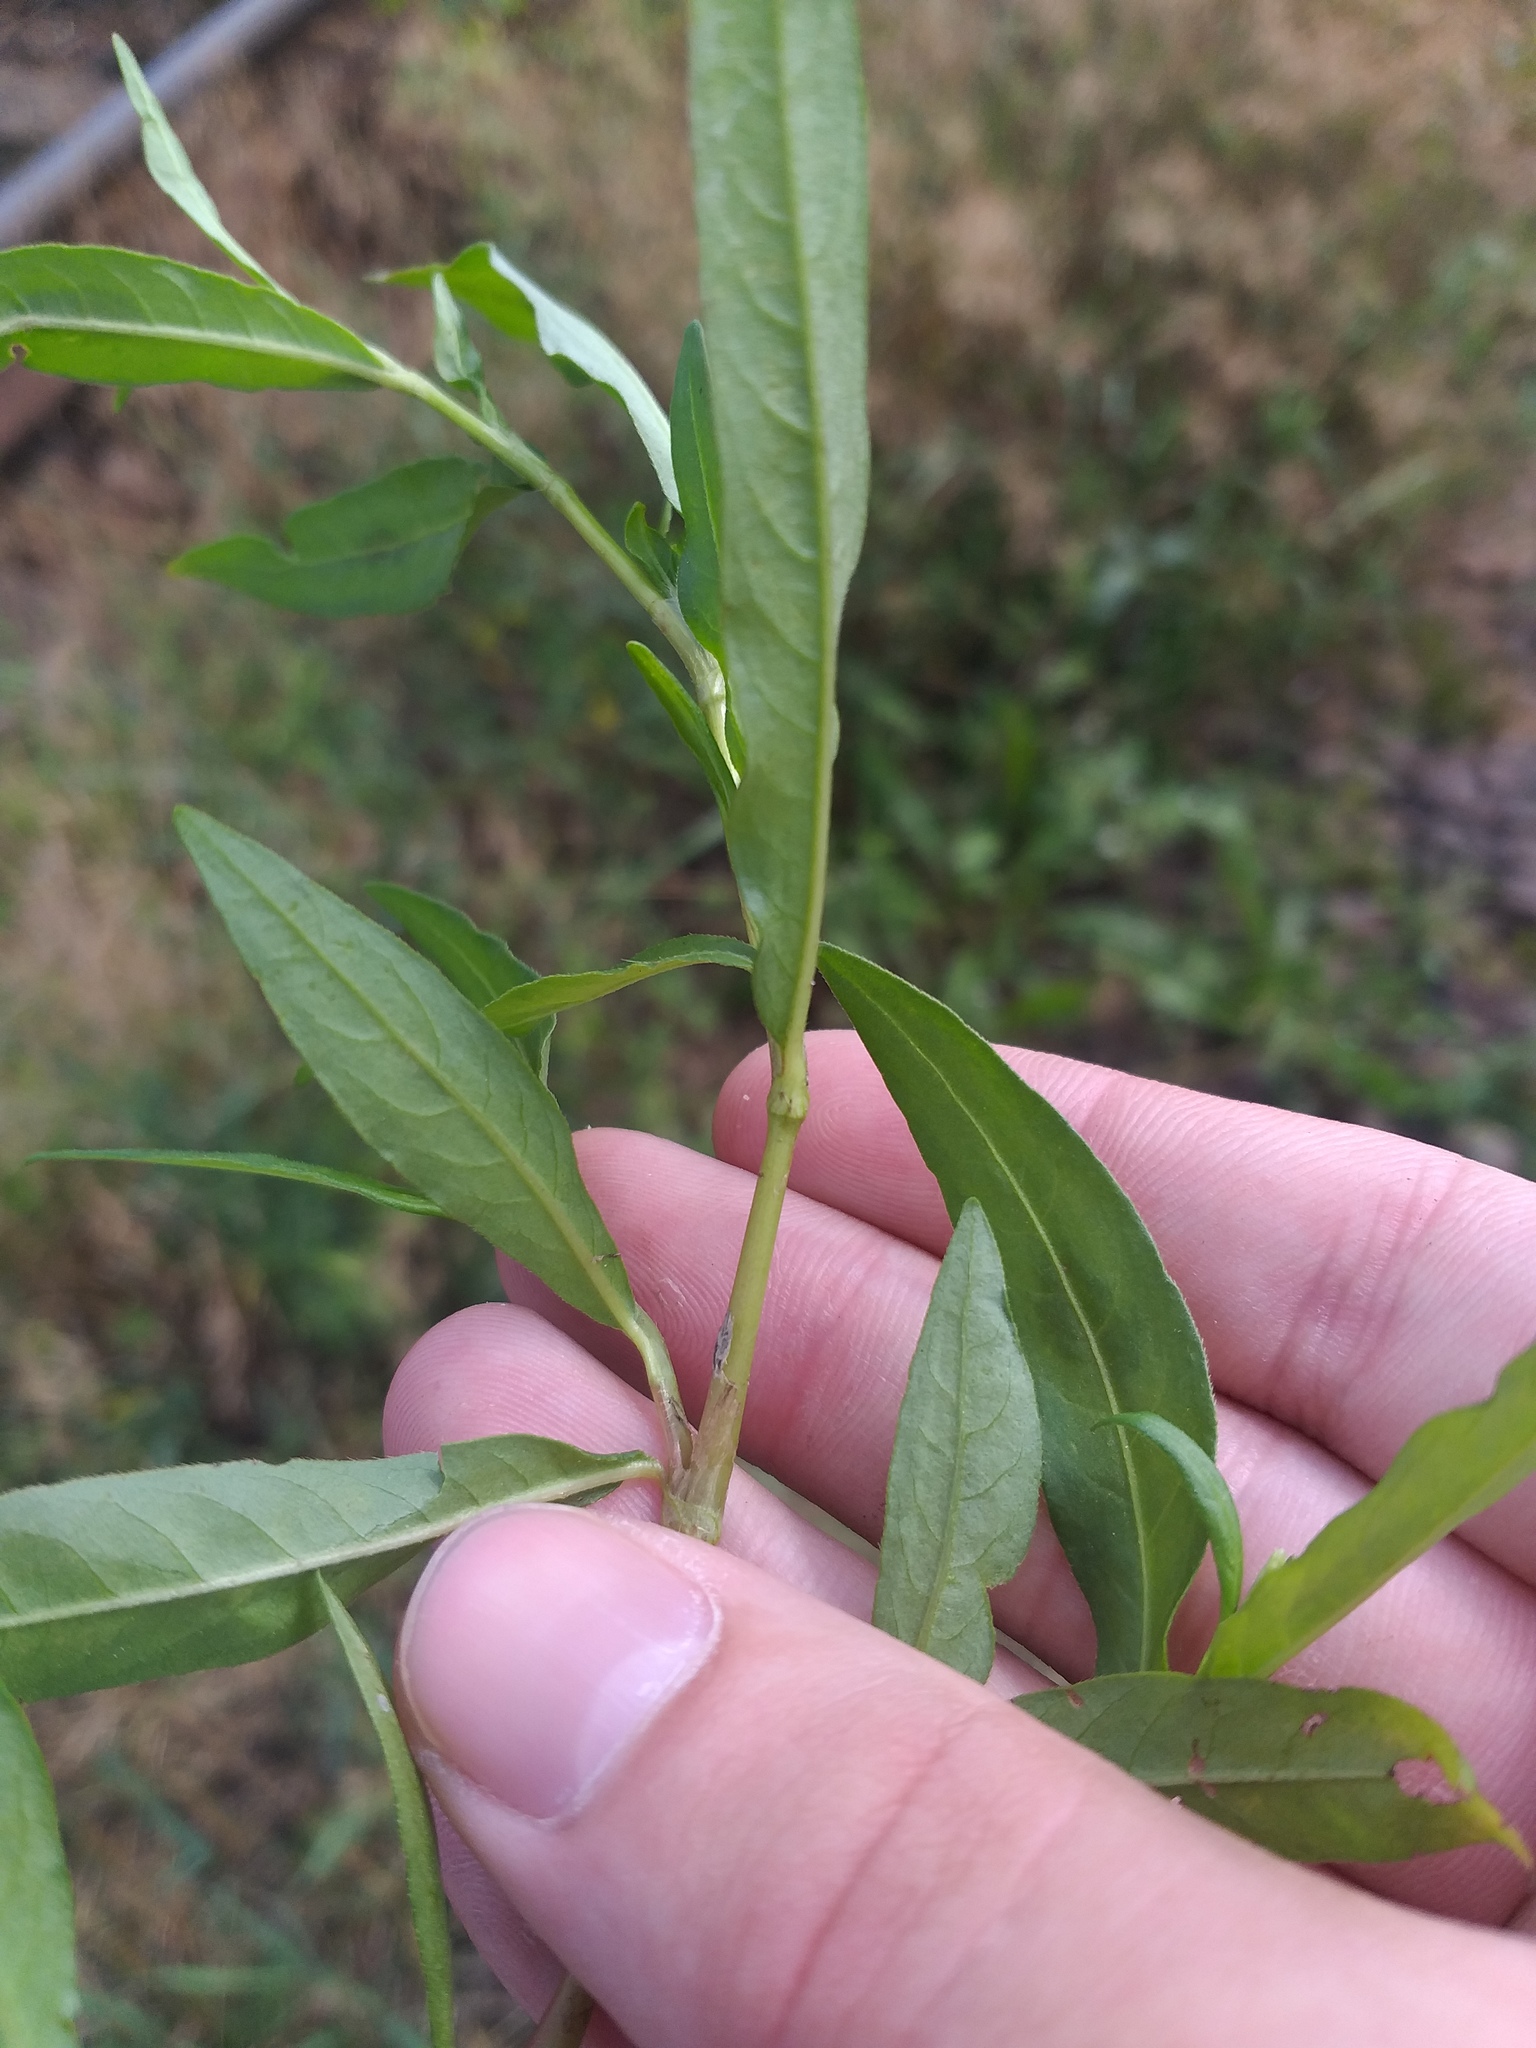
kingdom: Plantae
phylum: Tracheophyta
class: Magnoliopsida
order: Caryophyllales
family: Polygonaceae
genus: Persicaria
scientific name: Persicaria maculosa
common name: Redshank
